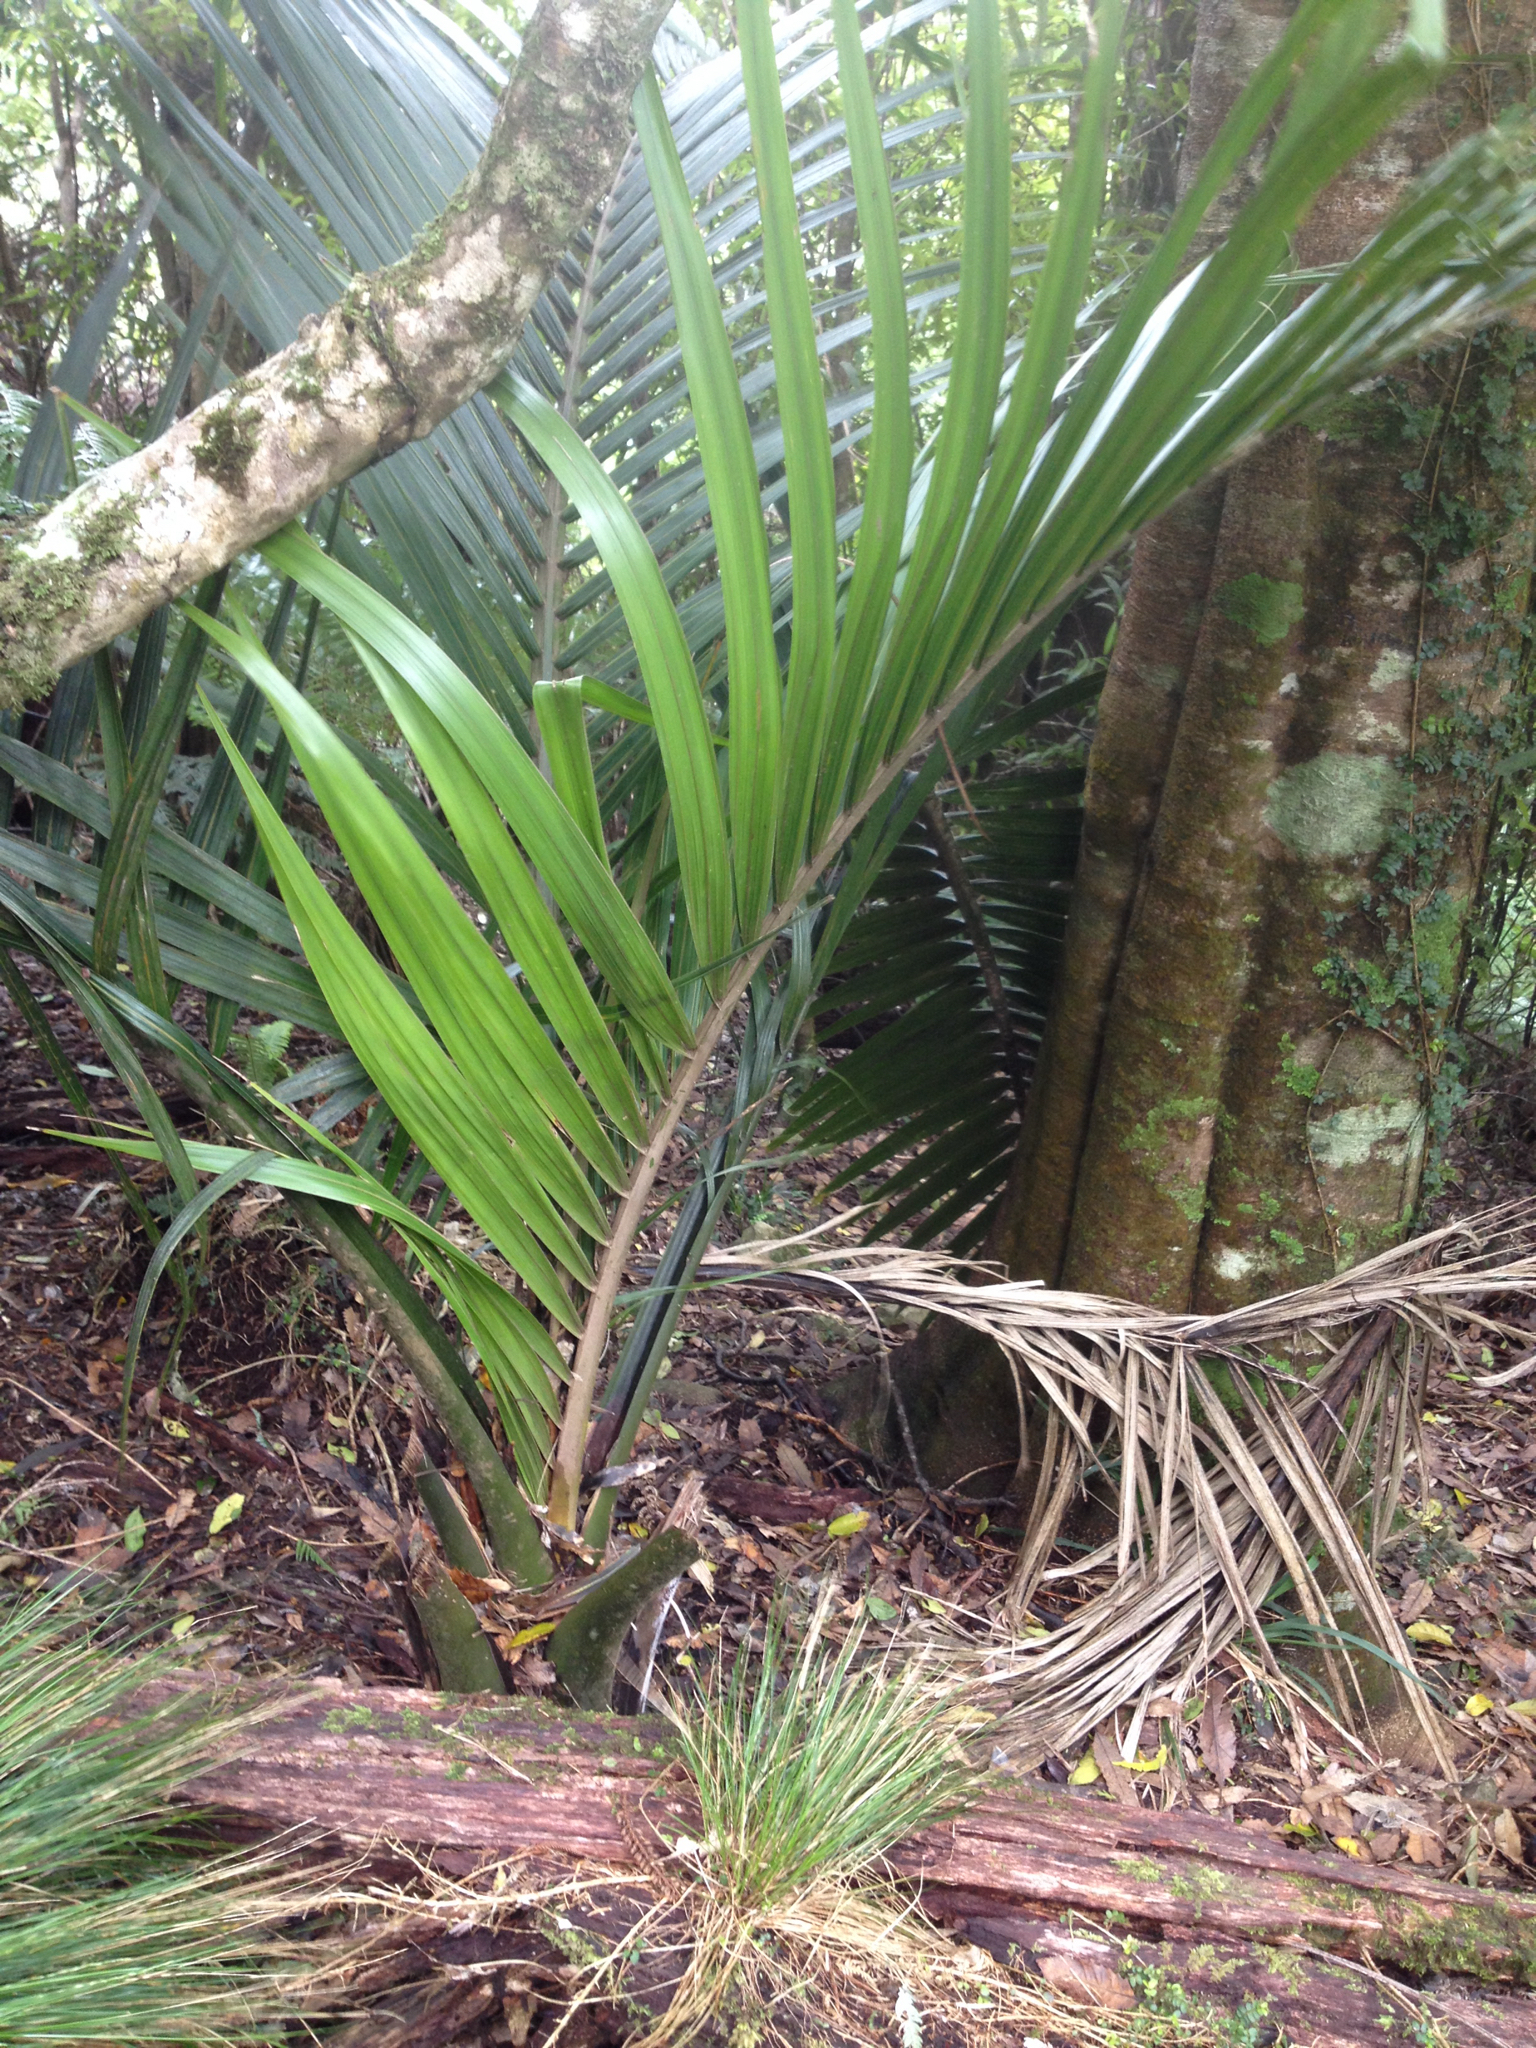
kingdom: Plantae
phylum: Tracheophyta
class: Liliopsida
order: Arecales
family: Arecaceae
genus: Rhopalostylis
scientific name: Rhopalostylis sapida
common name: Feather-duster palm
